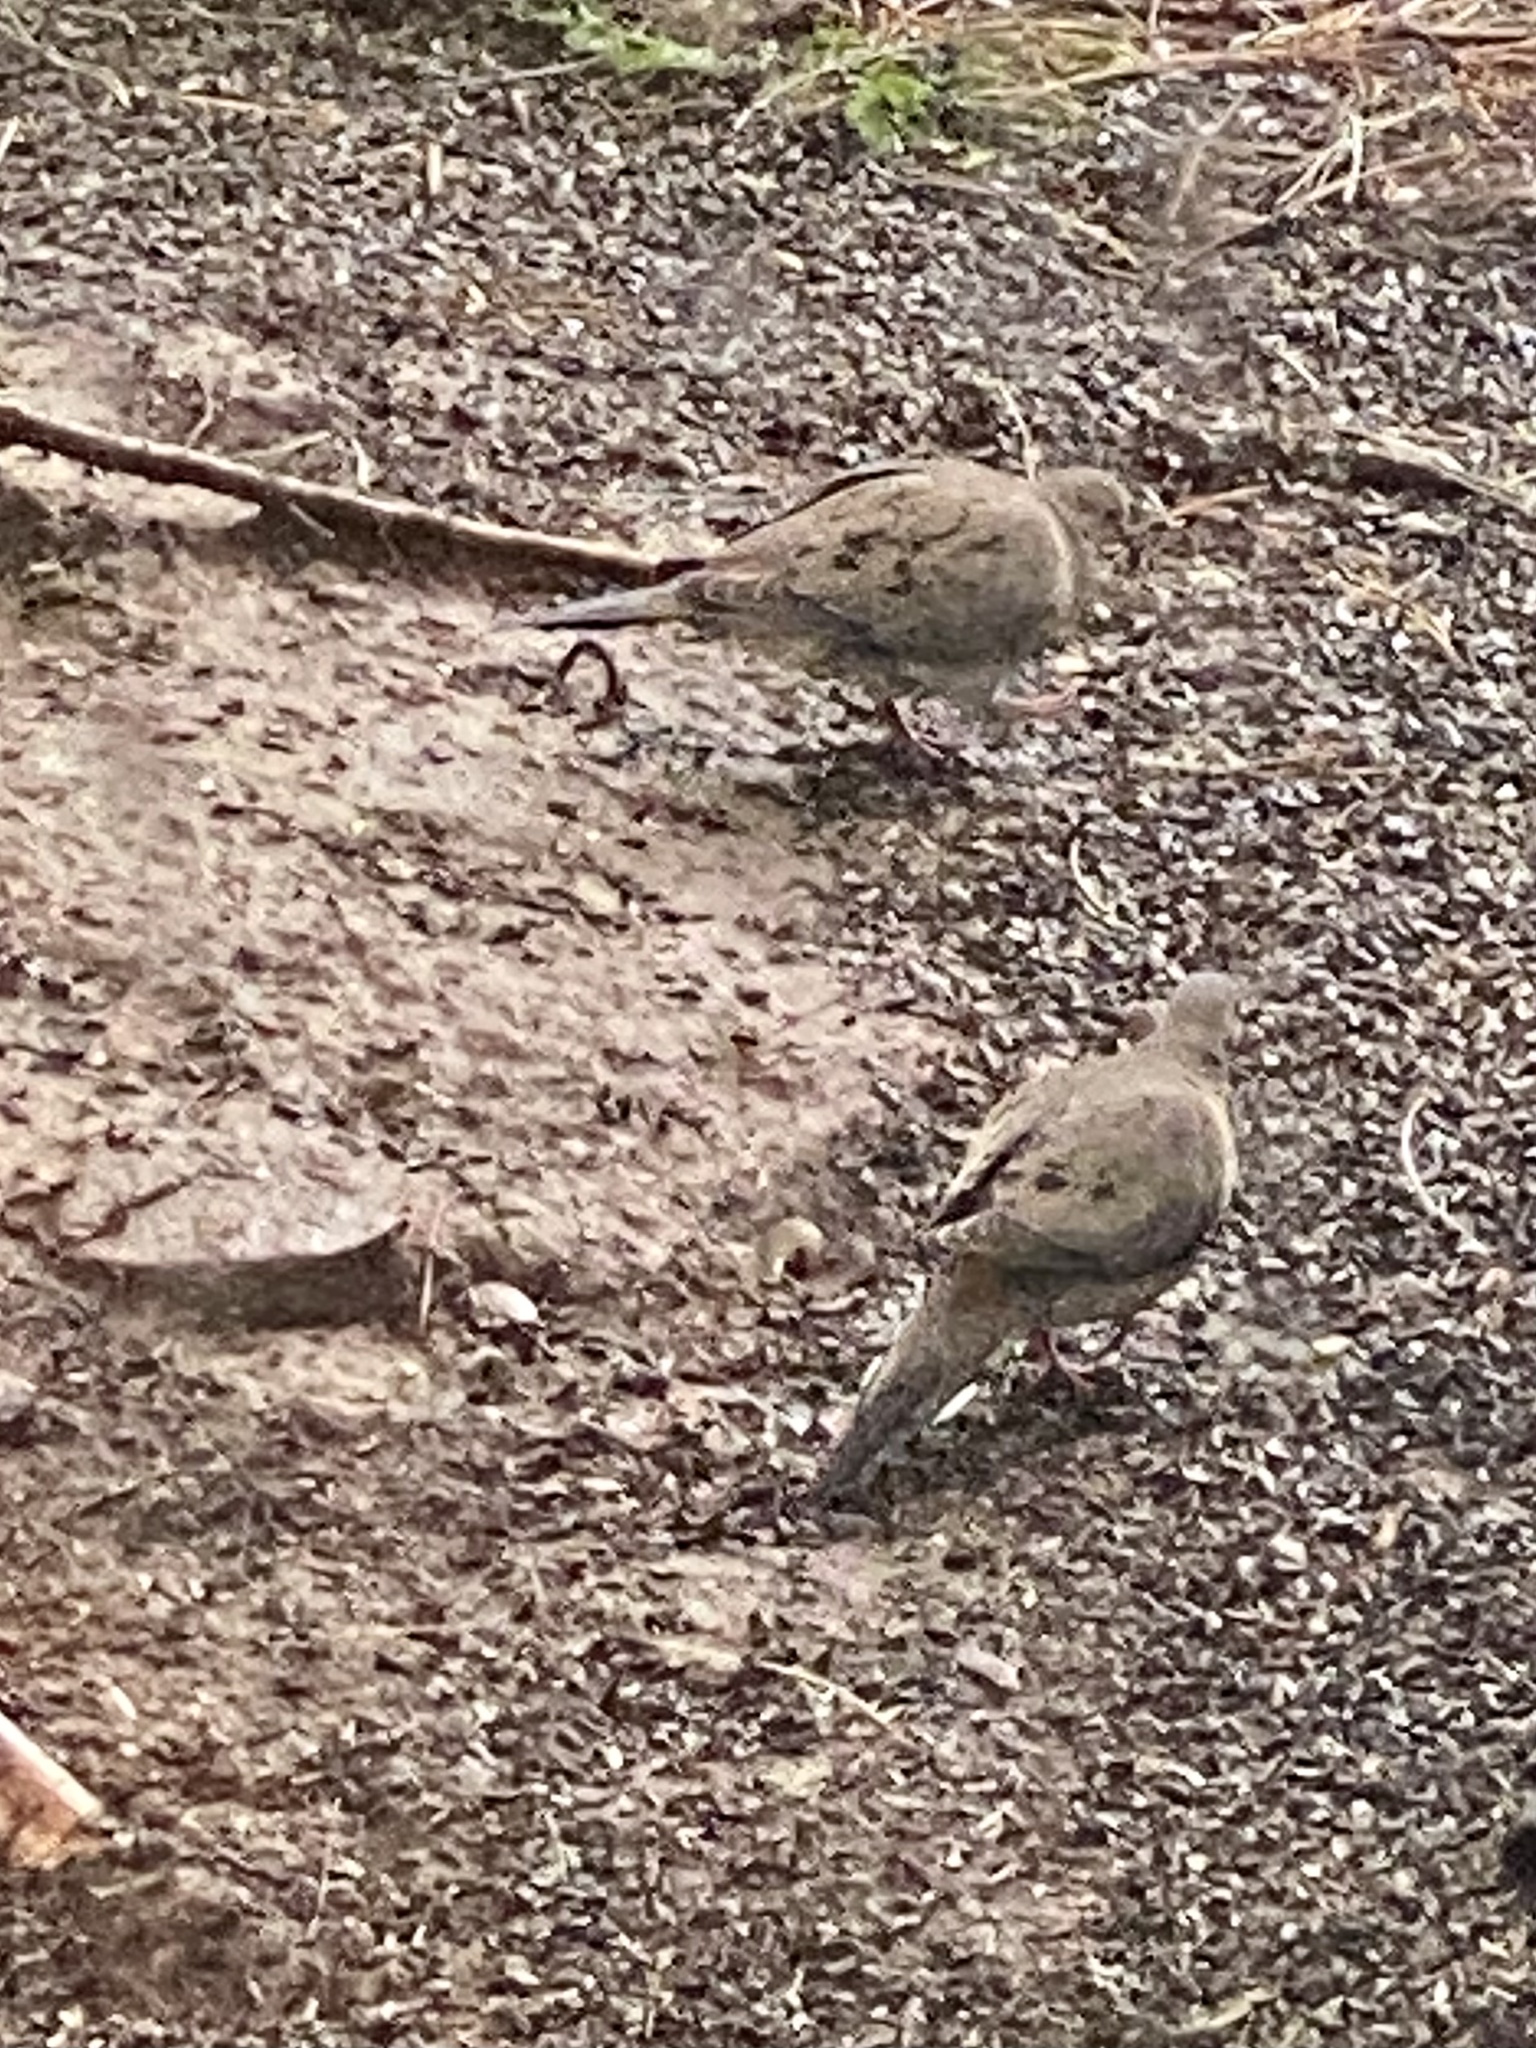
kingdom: Animalia
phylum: Chordata
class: Aves
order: Columbiformes
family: Columbidae
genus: Zenaida
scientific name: Zenaida macroura
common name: Mourning dove
